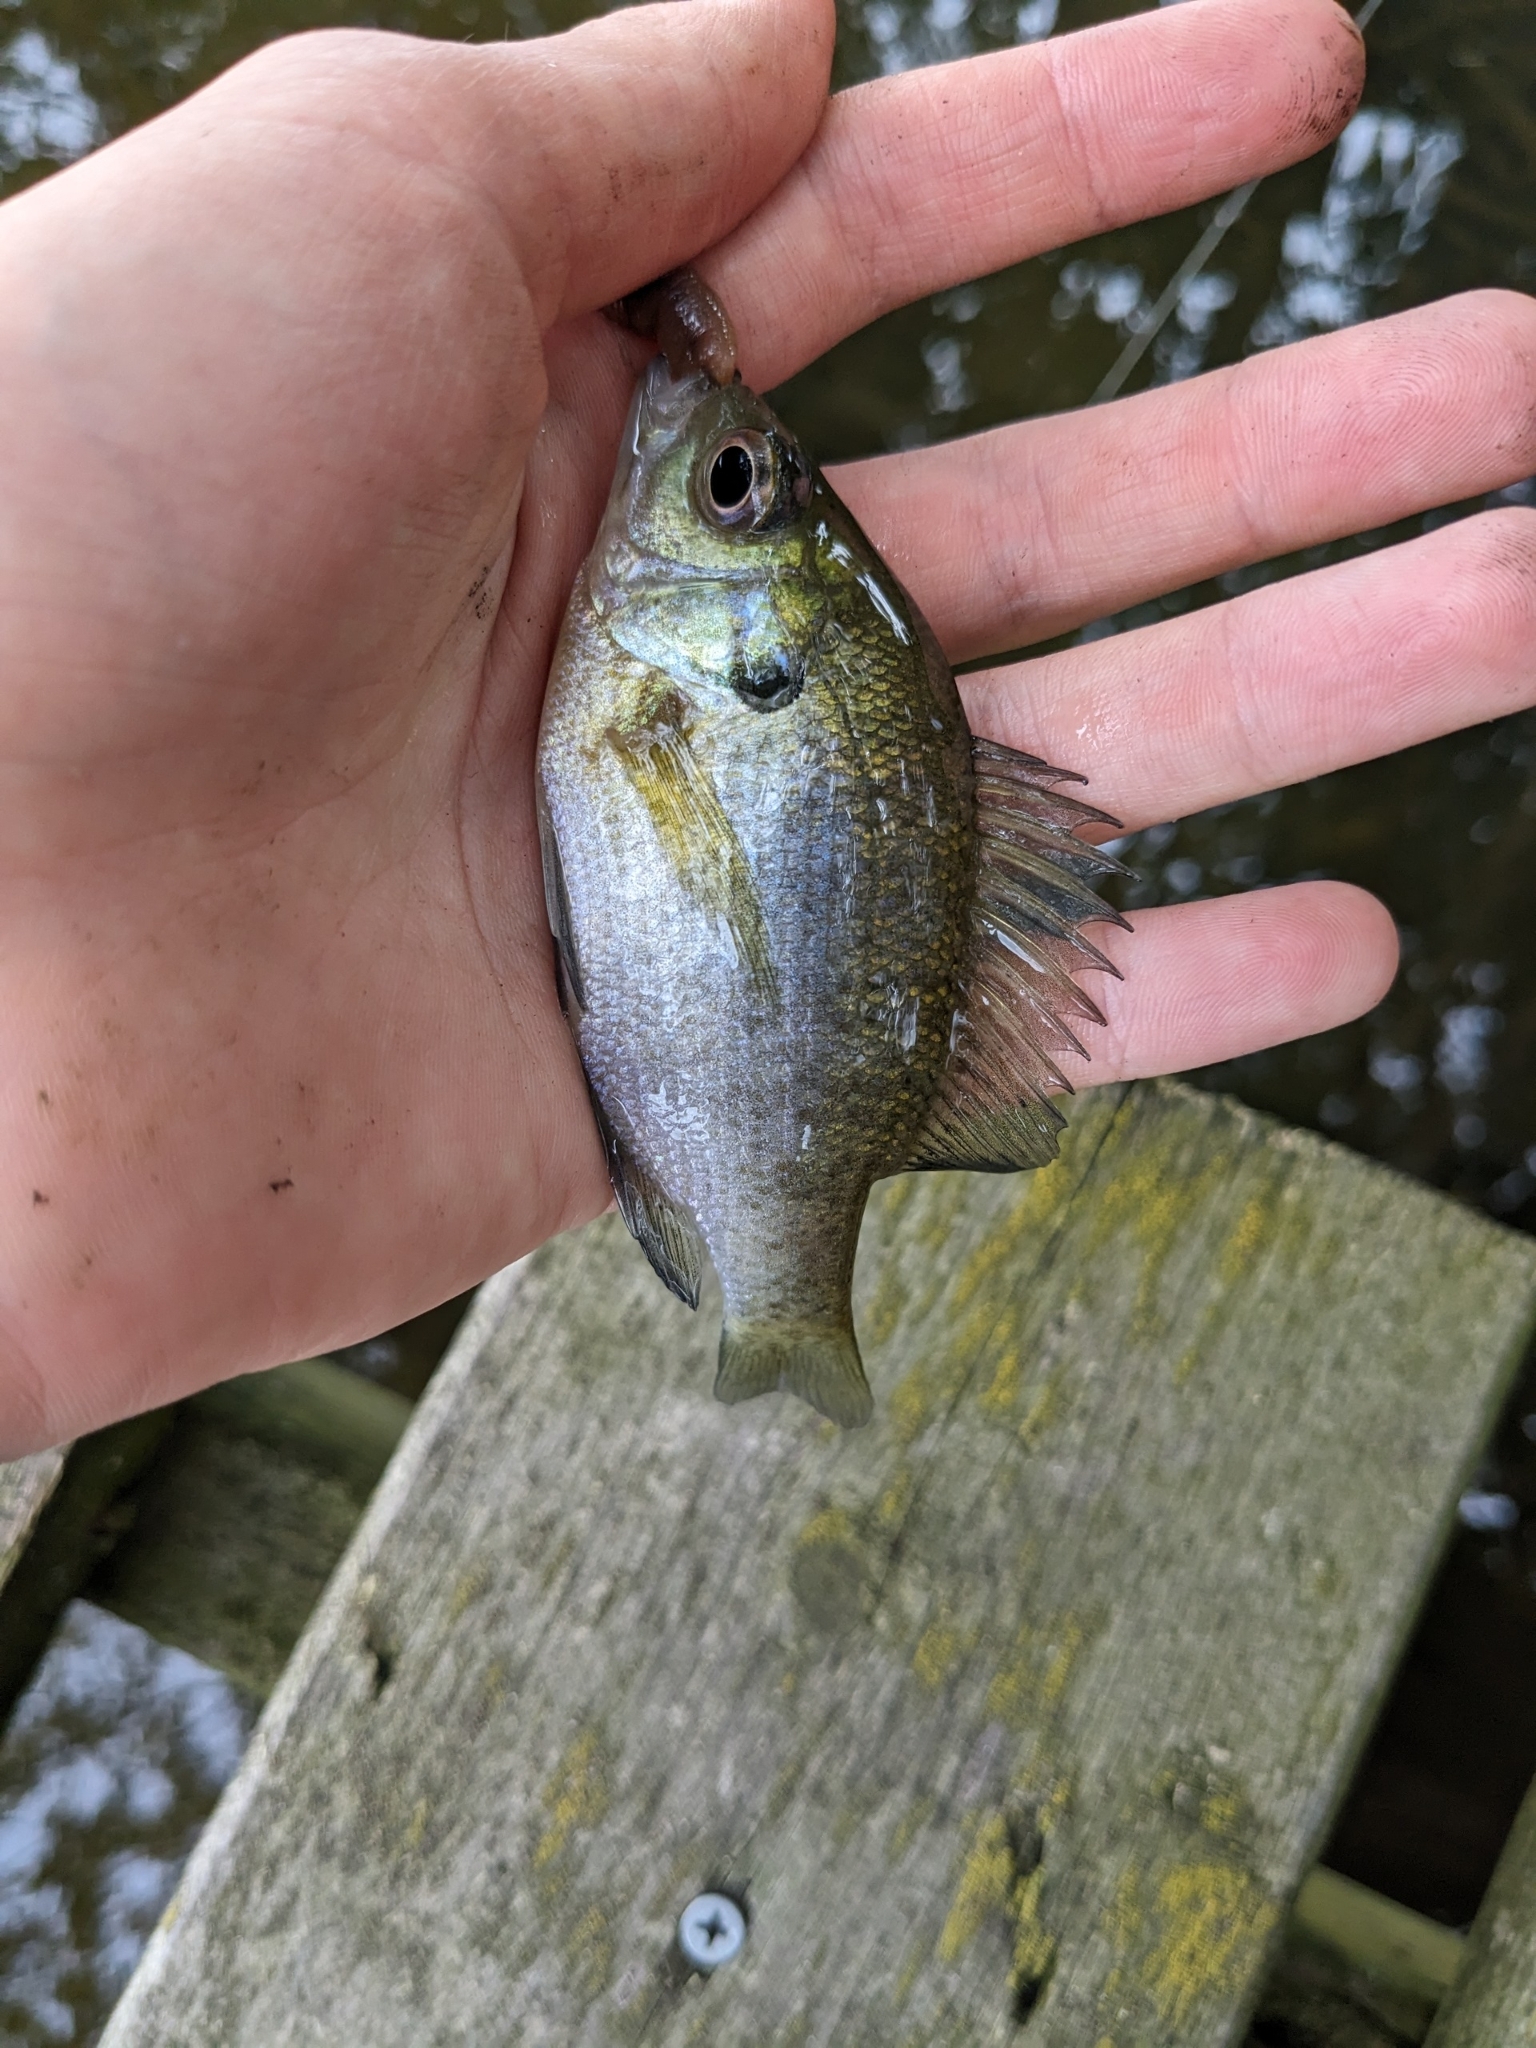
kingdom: Animalia
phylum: Chordata
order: Perciformes
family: Centrarchidae
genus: Lepomis
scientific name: Lepomis macrochirus
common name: Bluegill
